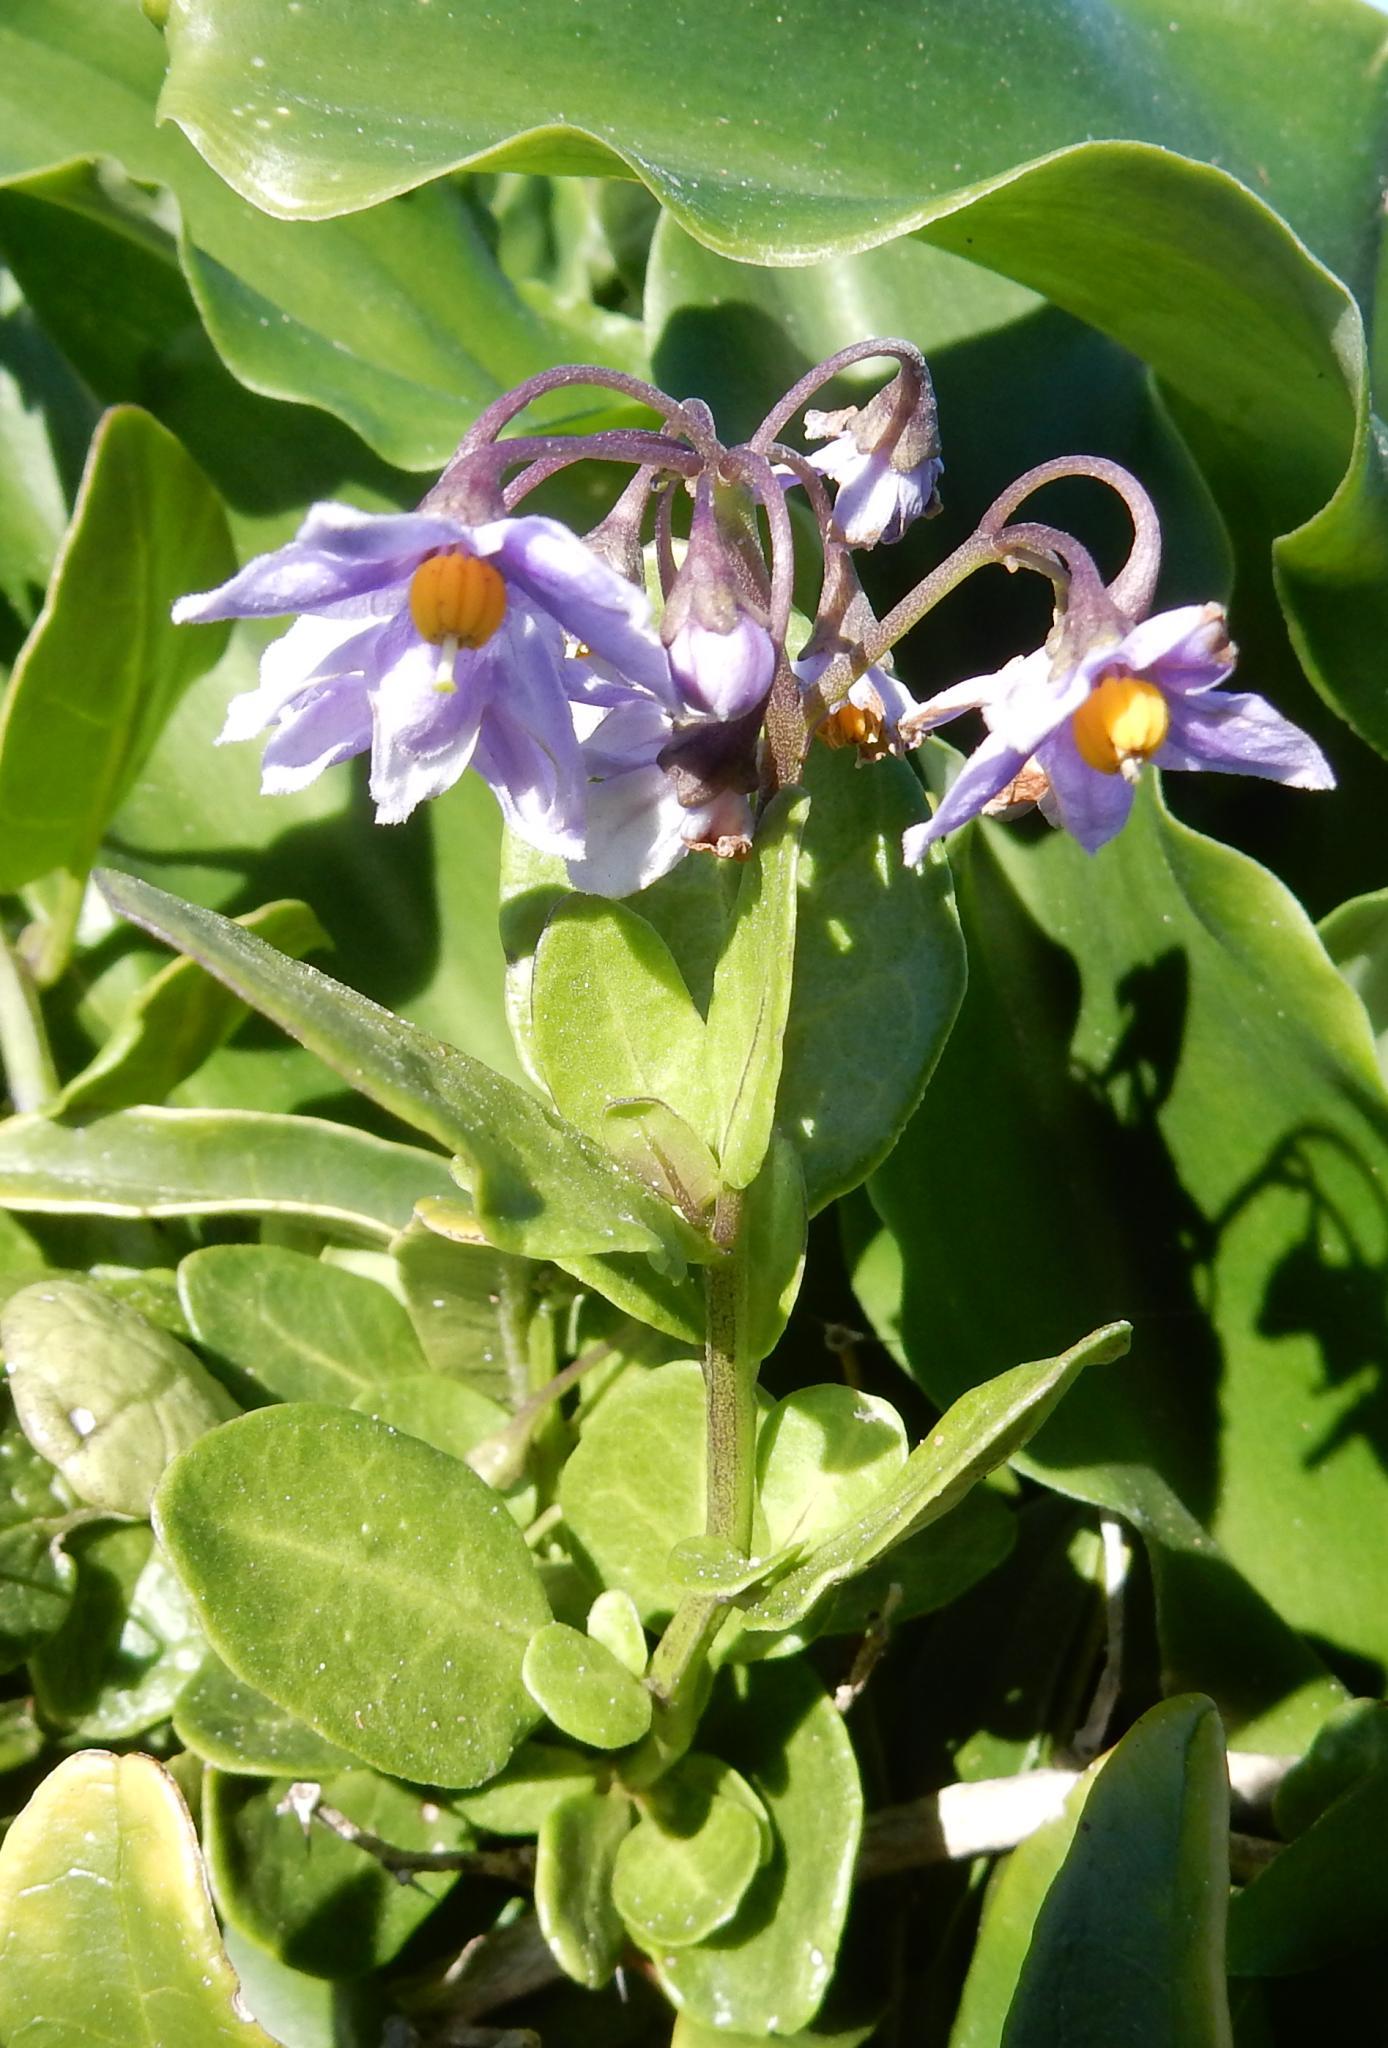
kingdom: Plantae
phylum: Tracheophyta
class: Magnoliopsida
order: Solanales
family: Solanaceae
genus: Solanum
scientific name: Solanum africanum
